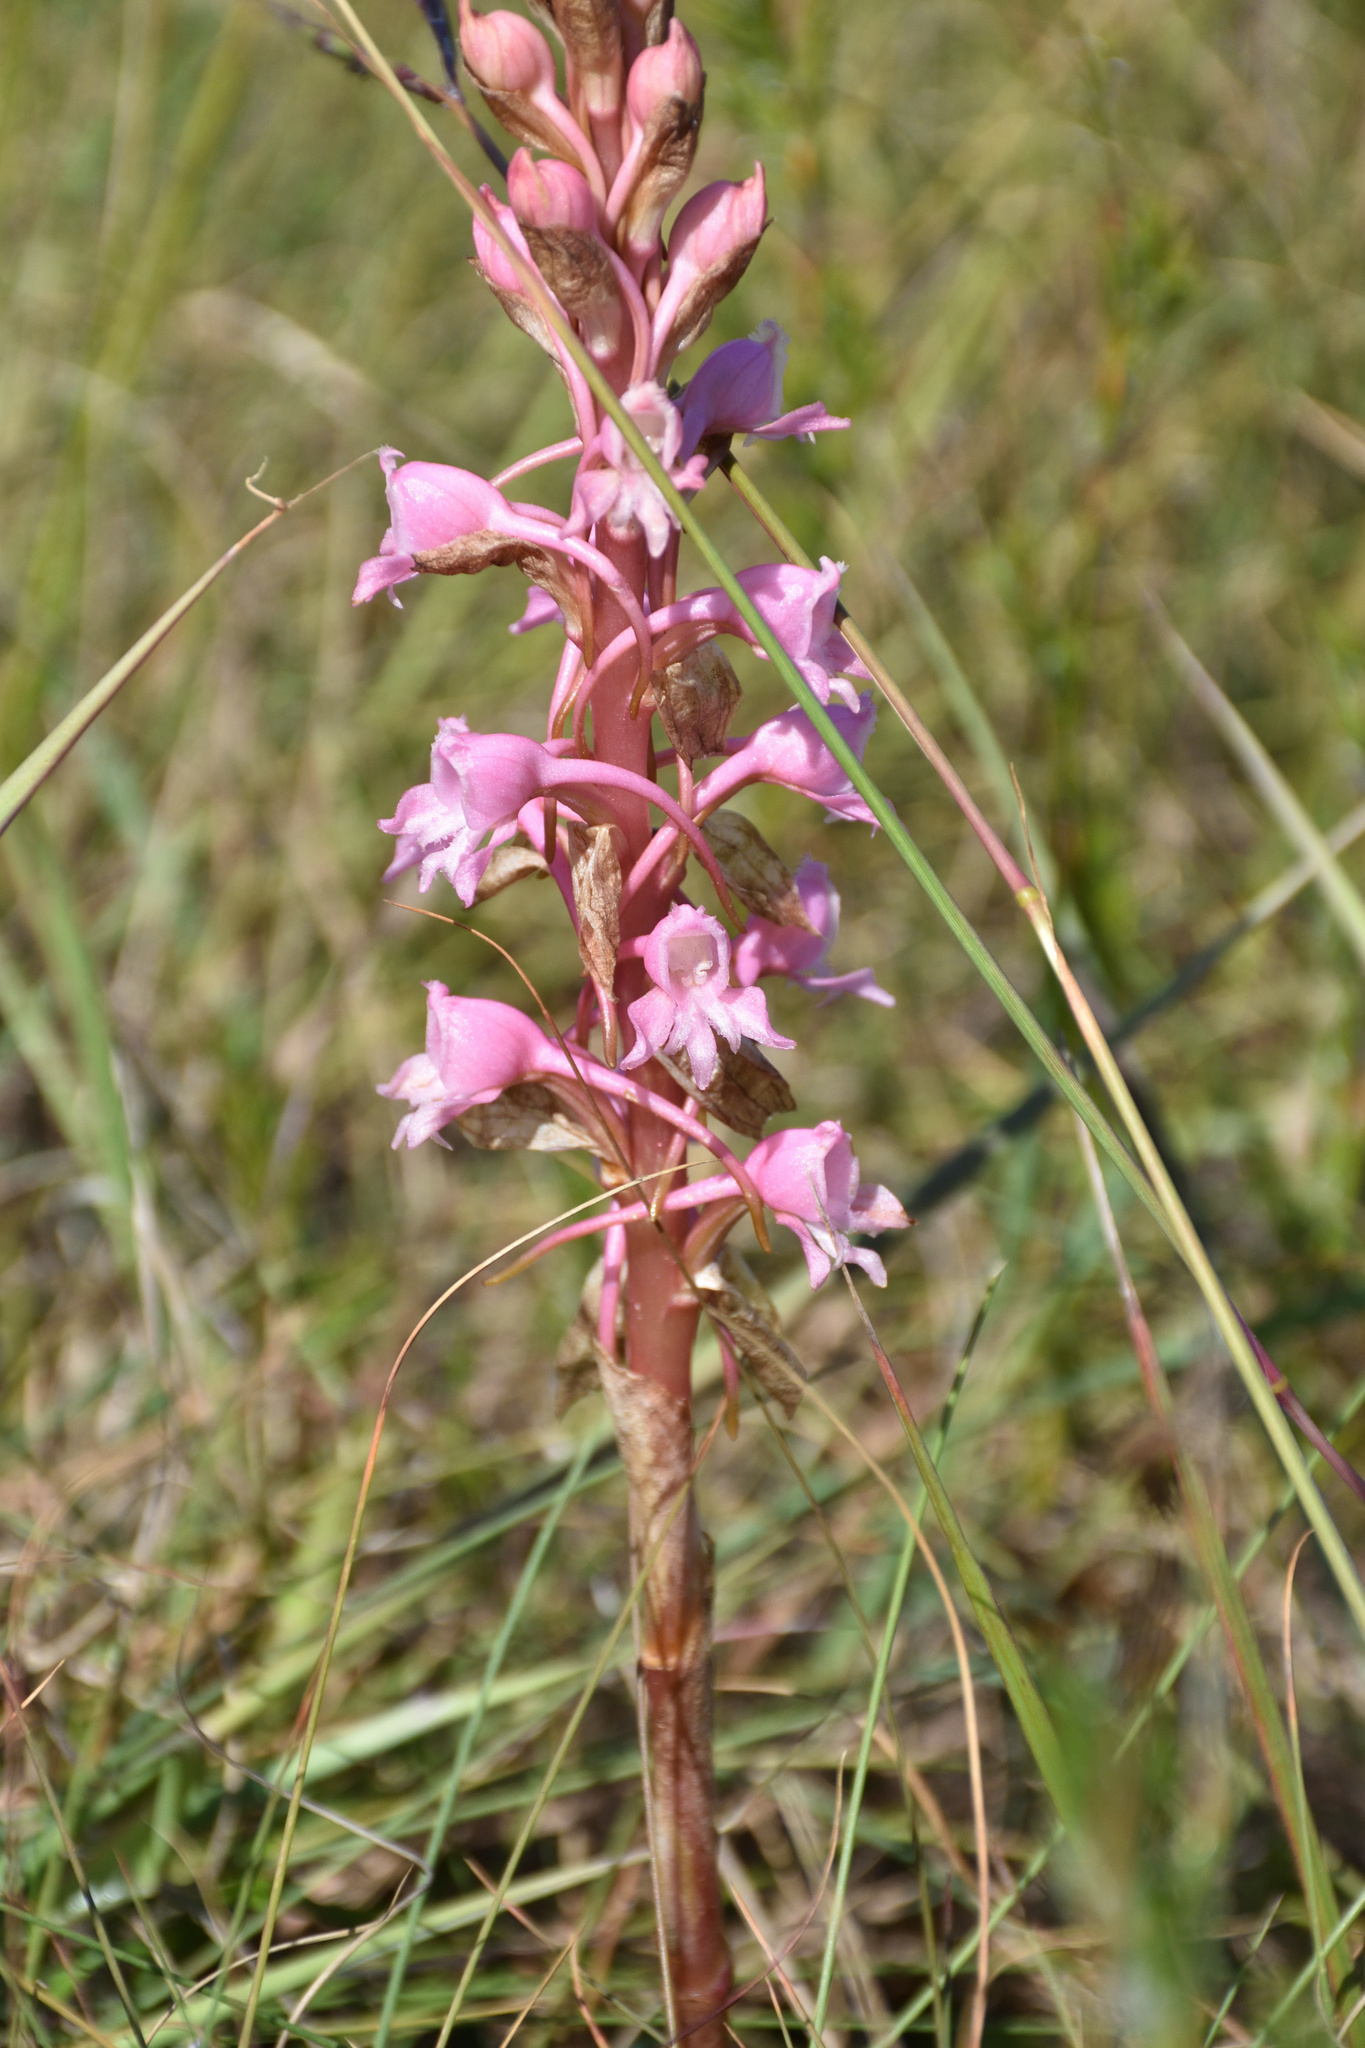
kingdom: Plantae
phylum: Tracheophyta
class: Liliopsida
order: Asparagales
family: Orchidaceae
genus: Satyrium
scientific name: Satyrium membranaceum
